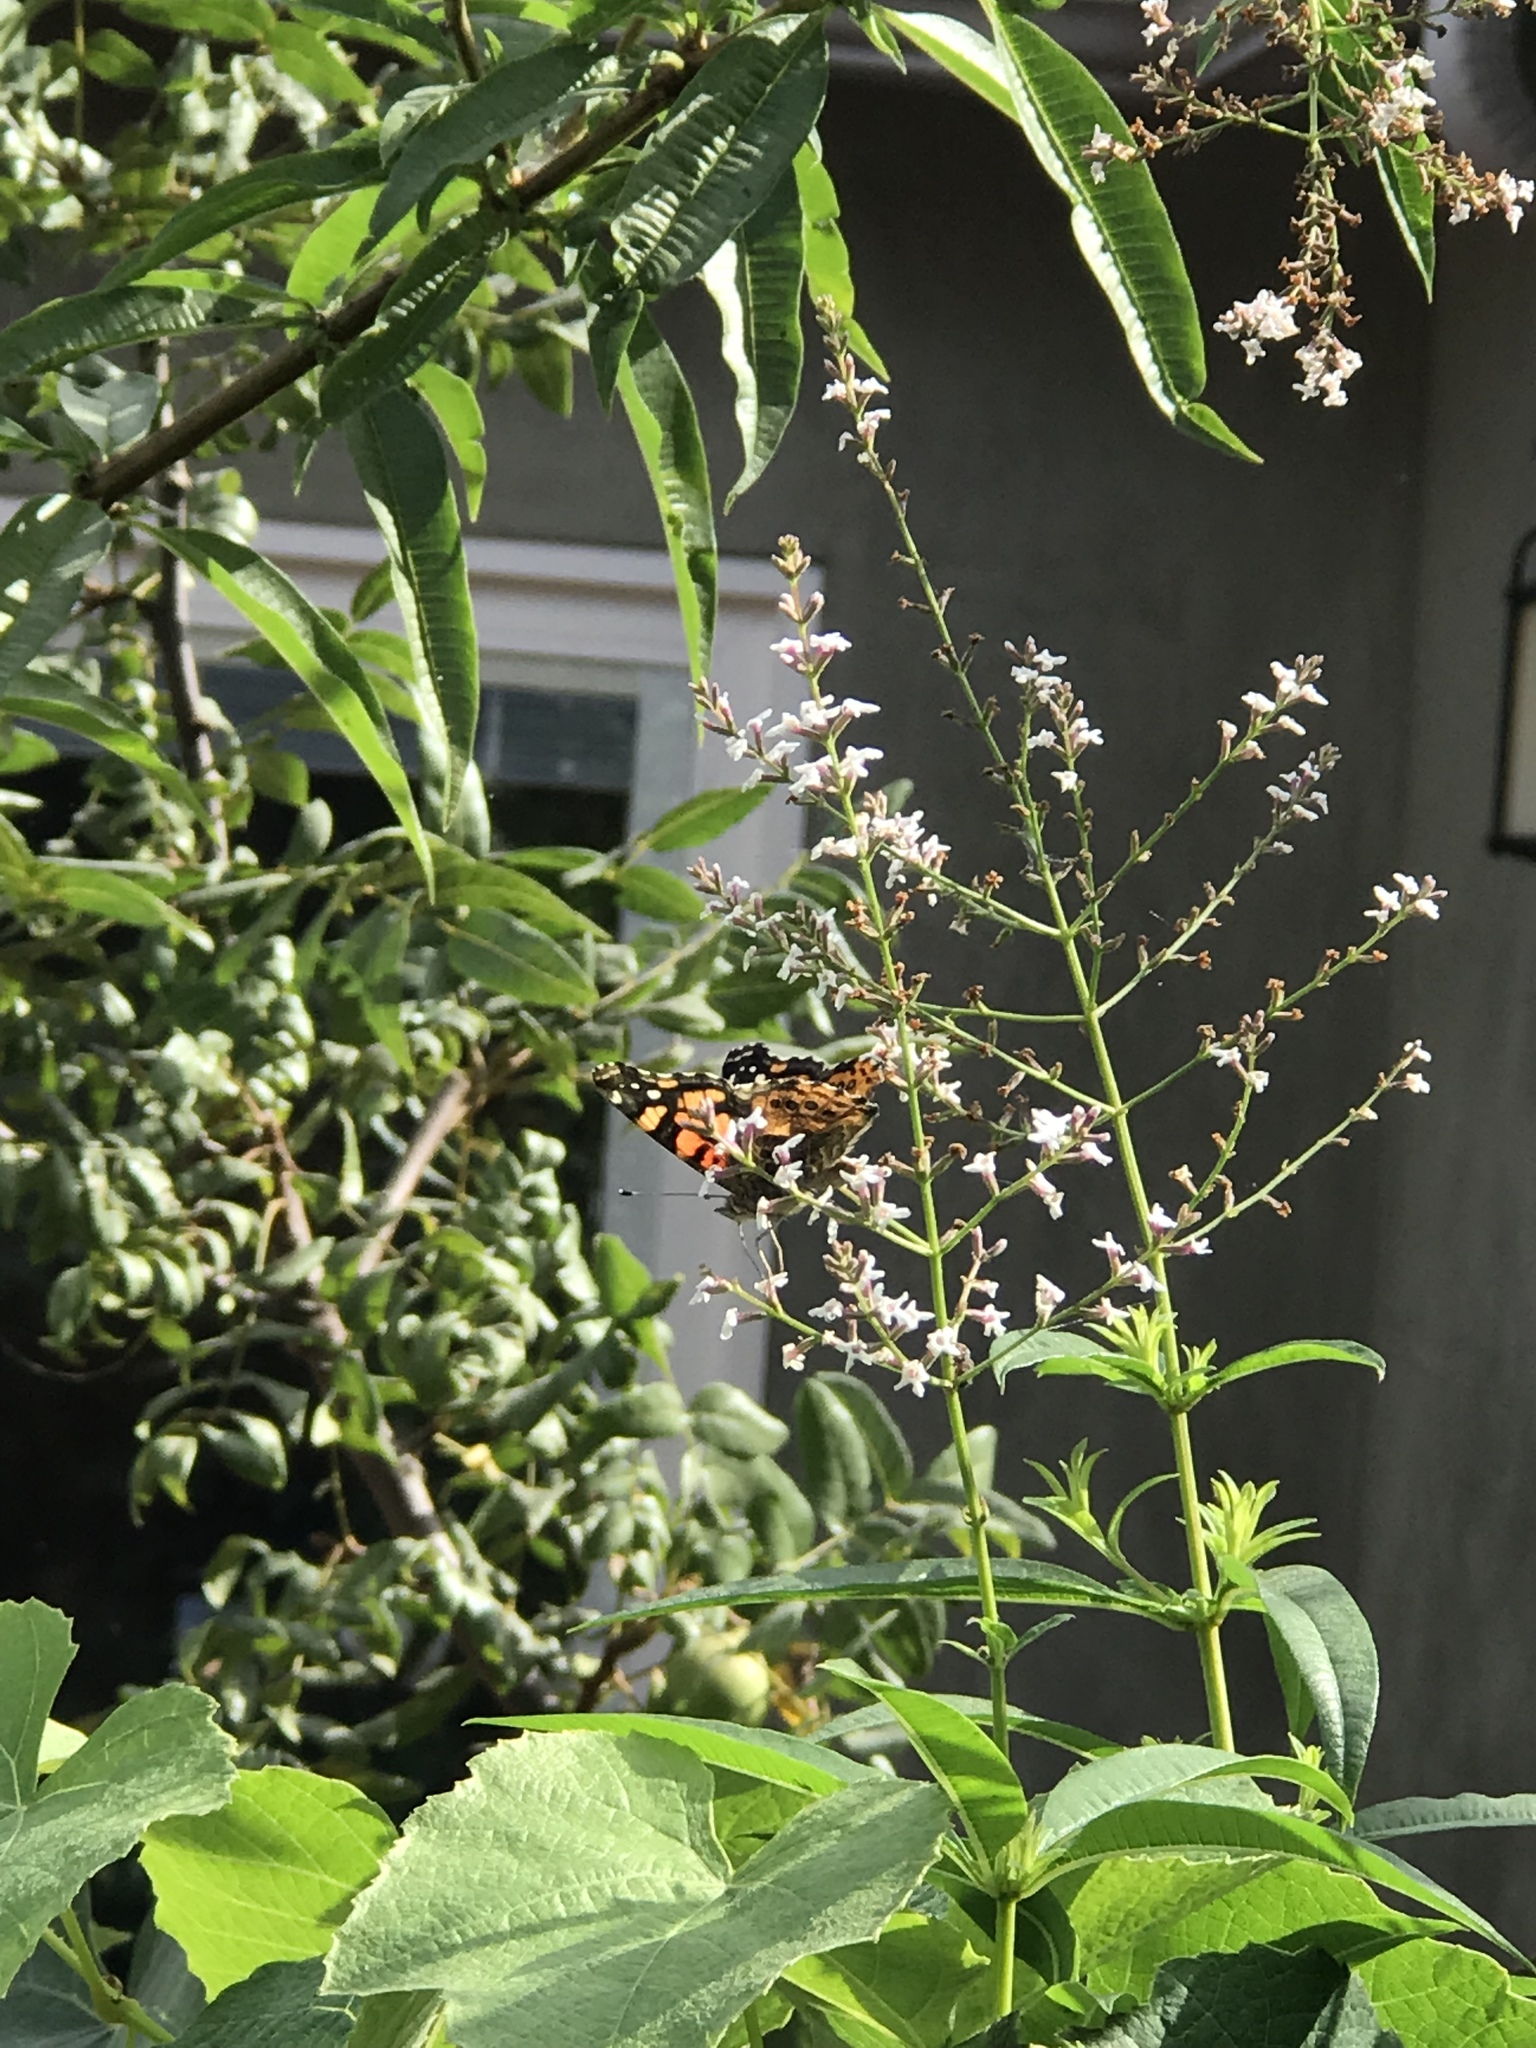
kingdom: Animalia
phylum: Arthropoda
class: Insecta
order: Lepidoptera
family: Nymphalidae
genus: Vanessa
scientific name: Vanessa annabella
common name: West coast lady
